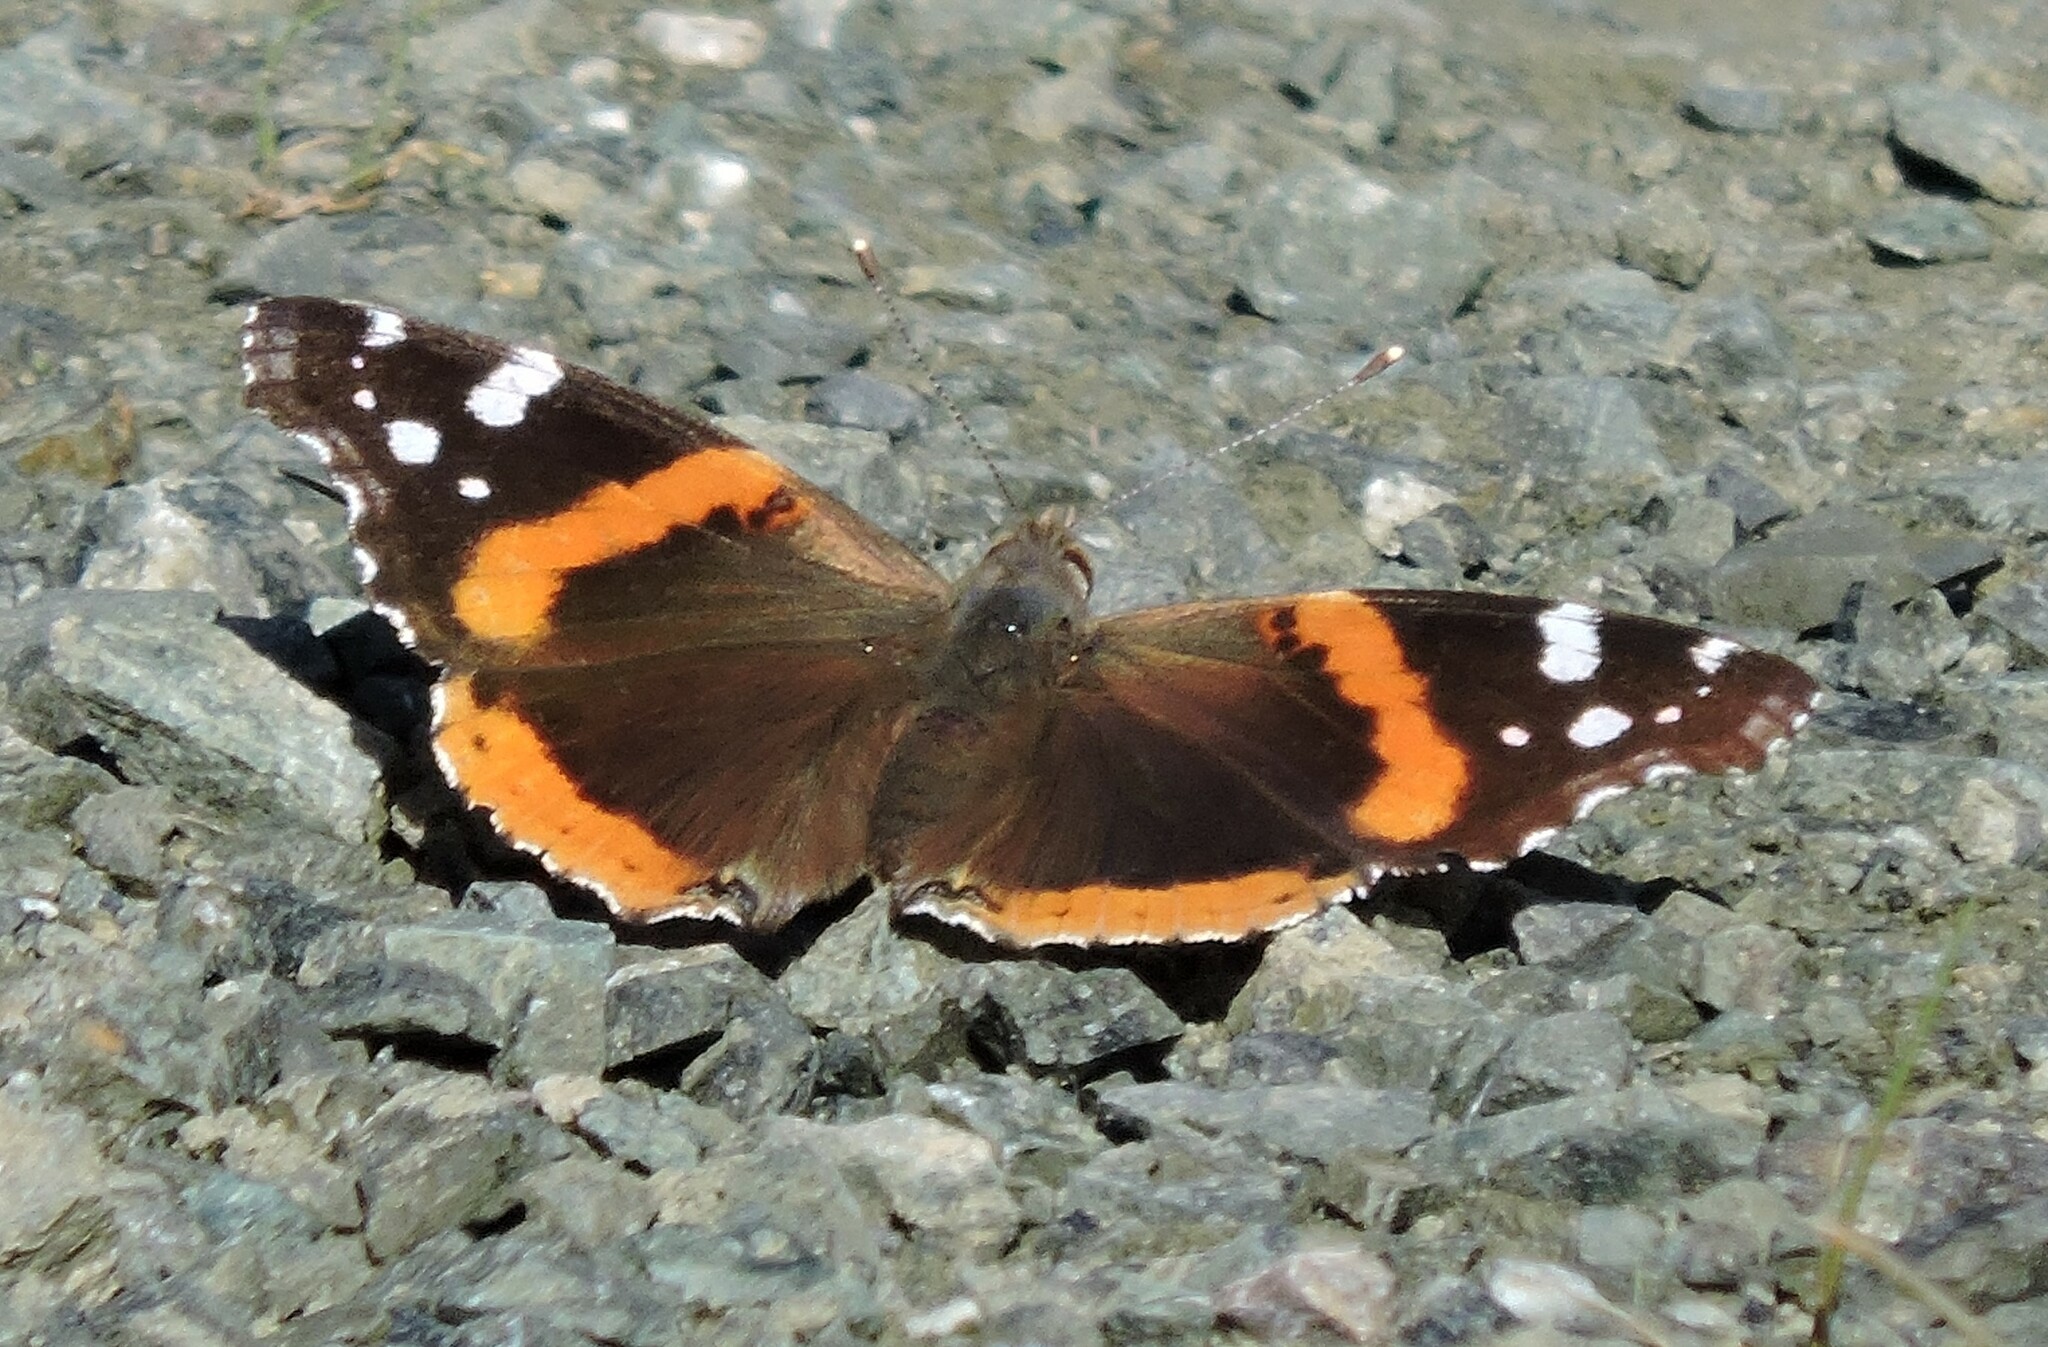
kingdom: Animalia
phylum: Arthropoda
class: Insecta
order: Lepidoptera
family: Nymphalidae
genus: Vanessa
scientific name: Vanessa atalanta
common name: Red admiral
